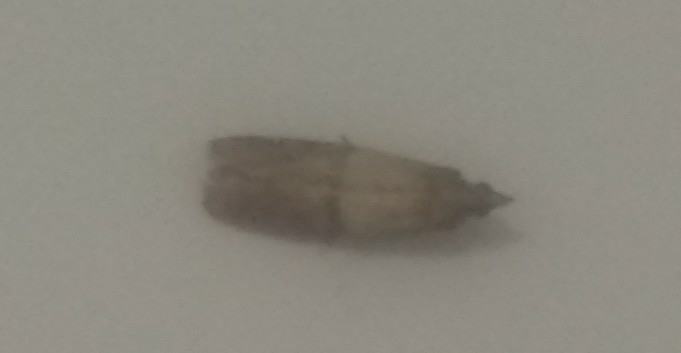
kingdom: Animalia
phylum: Arthropoda
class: Insecta
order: Lepidoptera
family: Pyralidae
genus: Plodia
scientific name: Plodia interpunctella
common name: Indian meal moth
